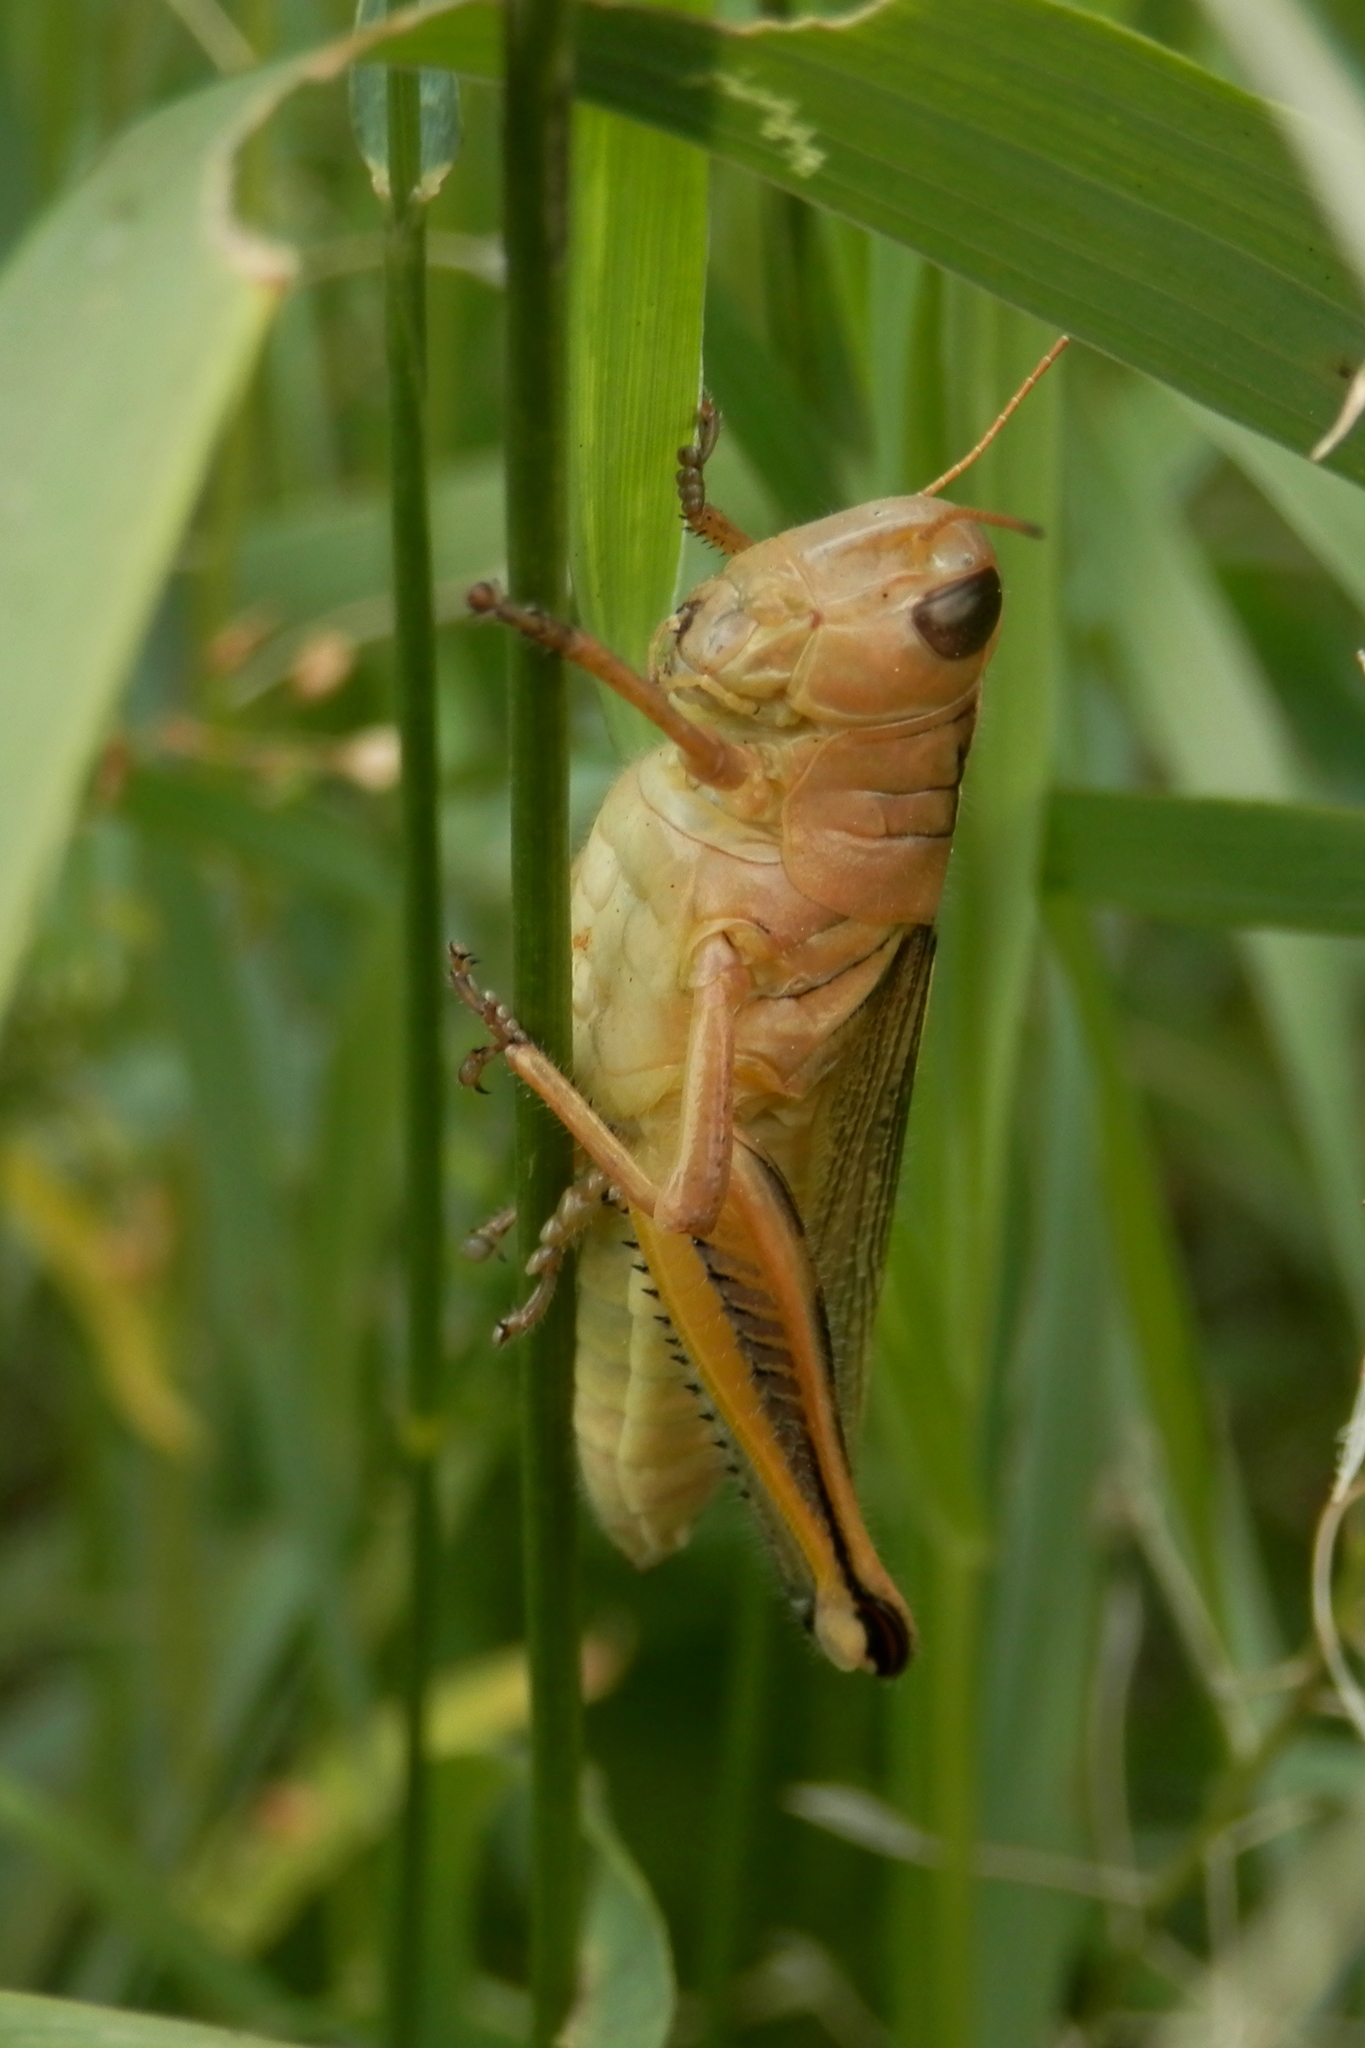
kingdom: Animalia
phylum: Arthropoda
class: Insecta
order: Orthoptera
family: Acrididae
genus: Melanoplus
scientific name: Melanoplus bivittatus
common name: Two-striped grasshopper
